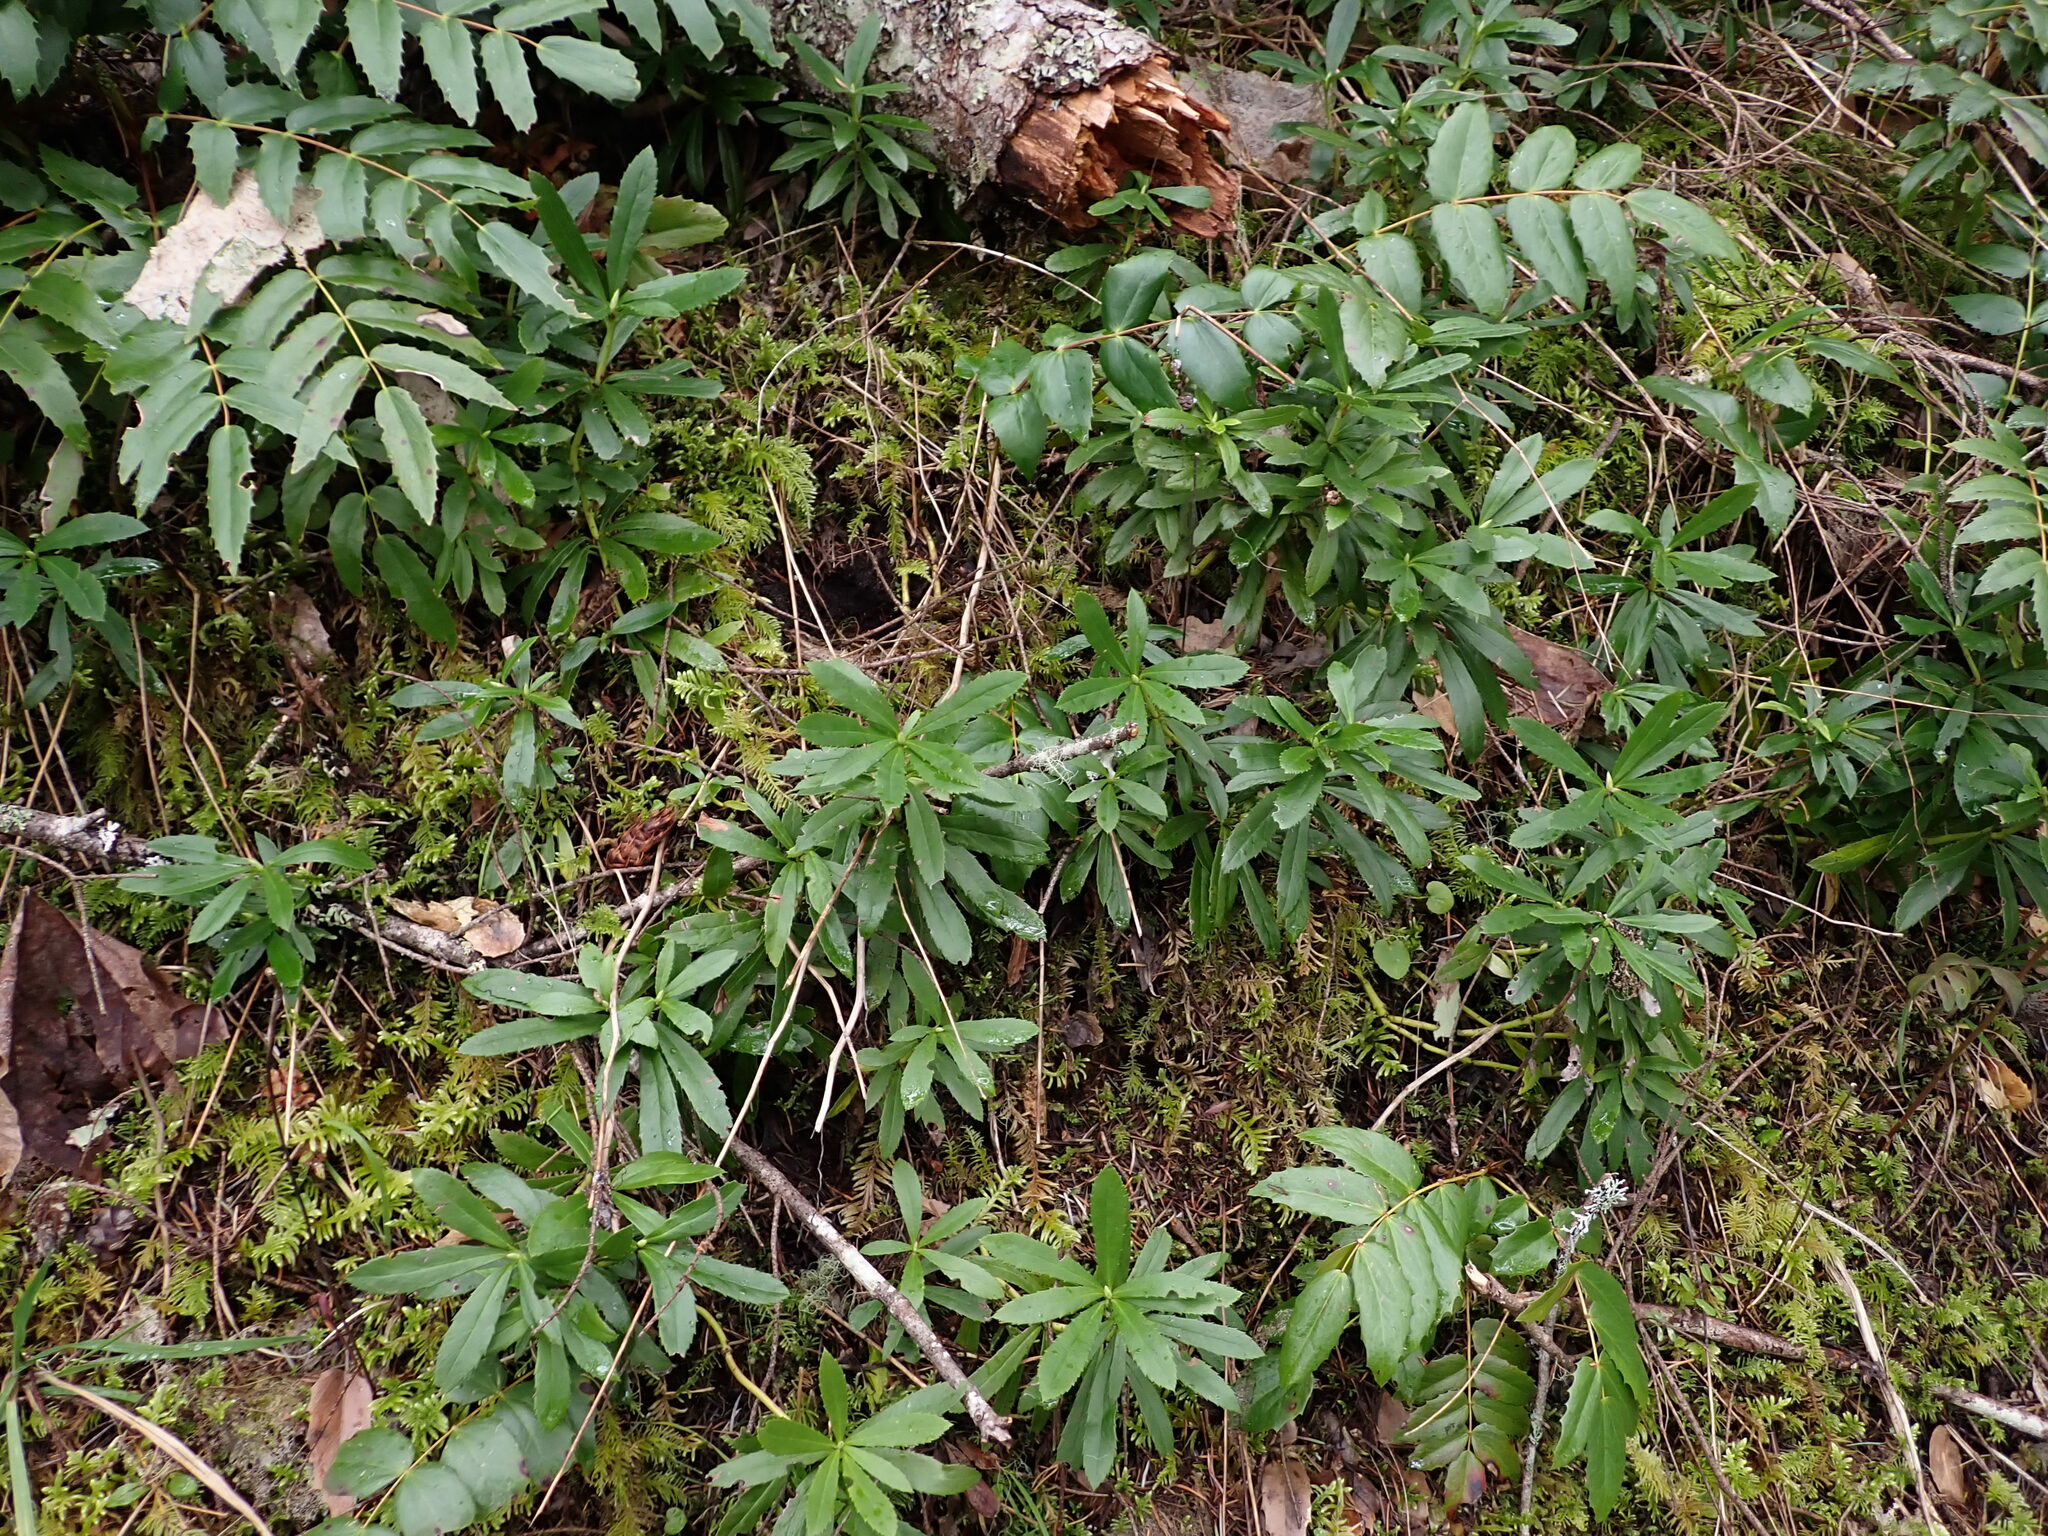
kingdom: Plantae
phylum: Tracheophyta
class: Magnoliopsida
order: Ericales
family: Ericaceae
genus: Chimaphila
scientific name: Chimaphila umbellata
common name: Pipsissewa
